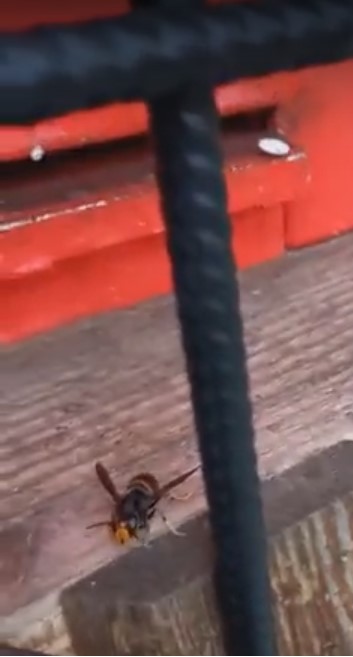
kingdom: Animalia
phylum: Arthropoda
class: Insecta
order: Hymenoptera
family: Vespidae
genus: Vespa
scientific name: Vespa velutina
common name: Asian hornet
